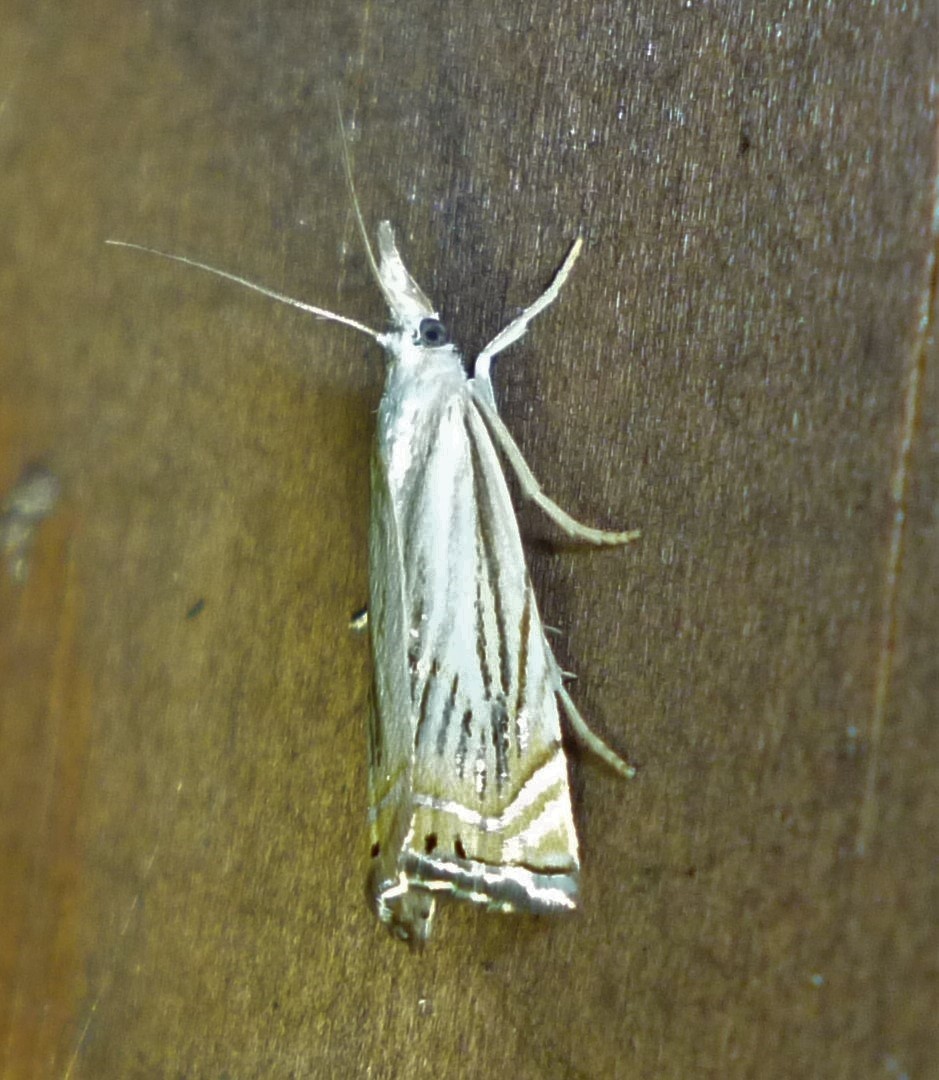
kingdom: Animalia
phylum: Arthropoda
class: Insecta
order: Lepidoptera
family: Crambidae
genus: Chrysoteuchia
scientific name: Chrysoteuchia topiarius
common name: Topiary grass-veneer
